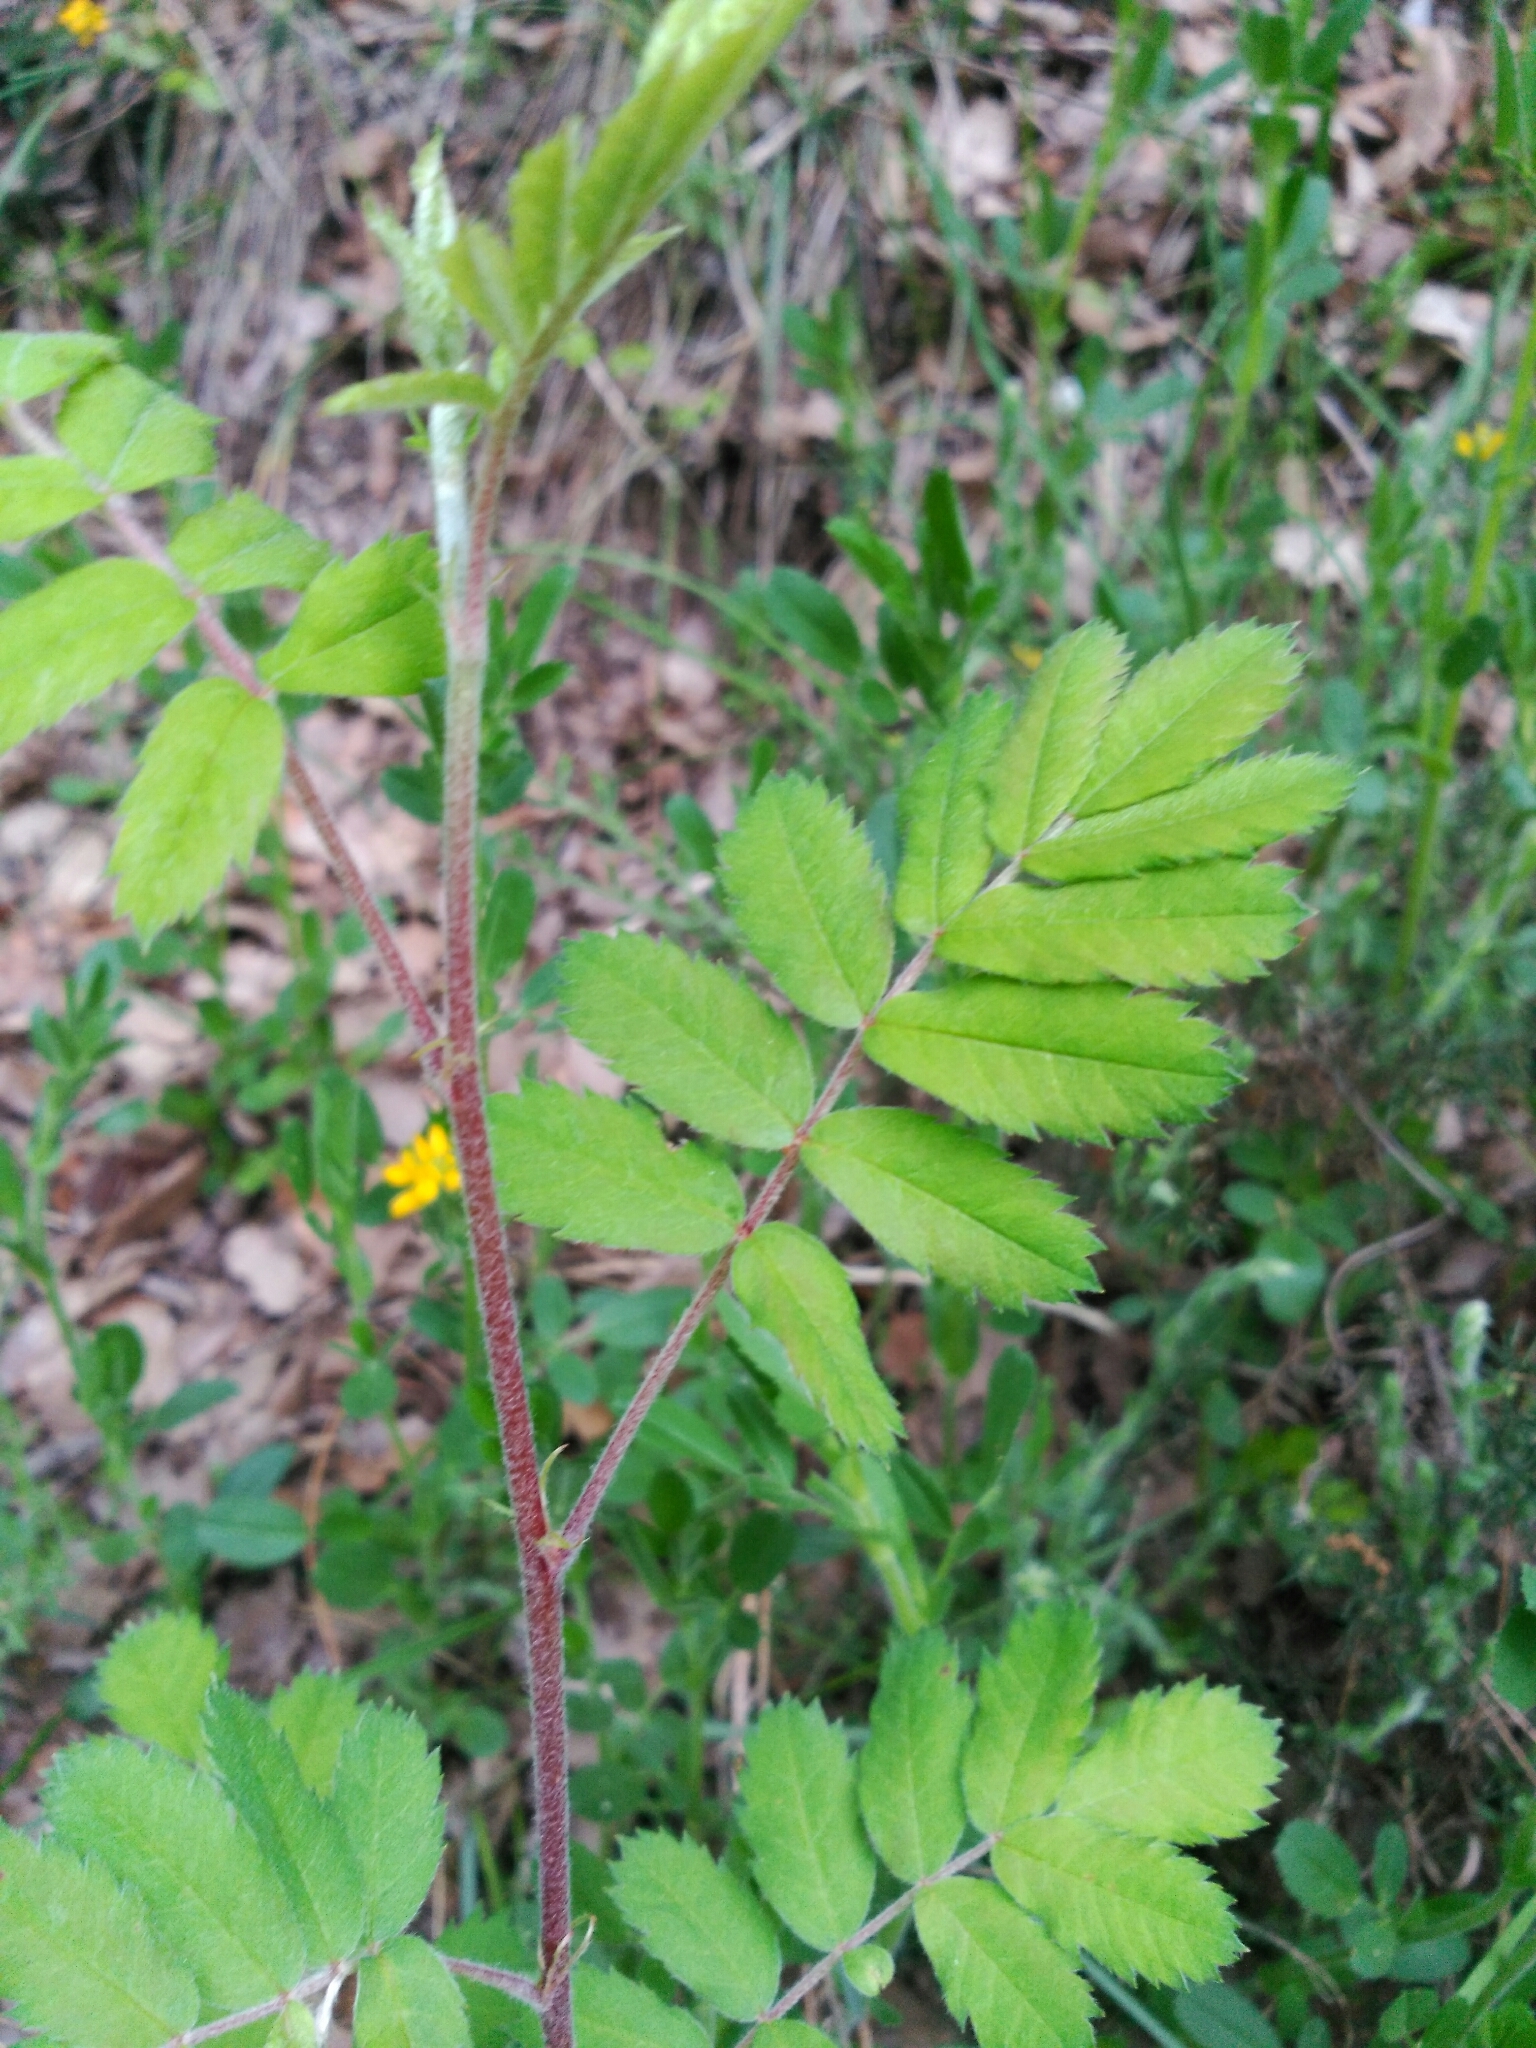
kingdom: Plantae
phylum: Tracheophyta
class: Magnoliopsida
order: Rosales
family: Rosaceae
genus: Cormus
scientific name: Cormus domestica
